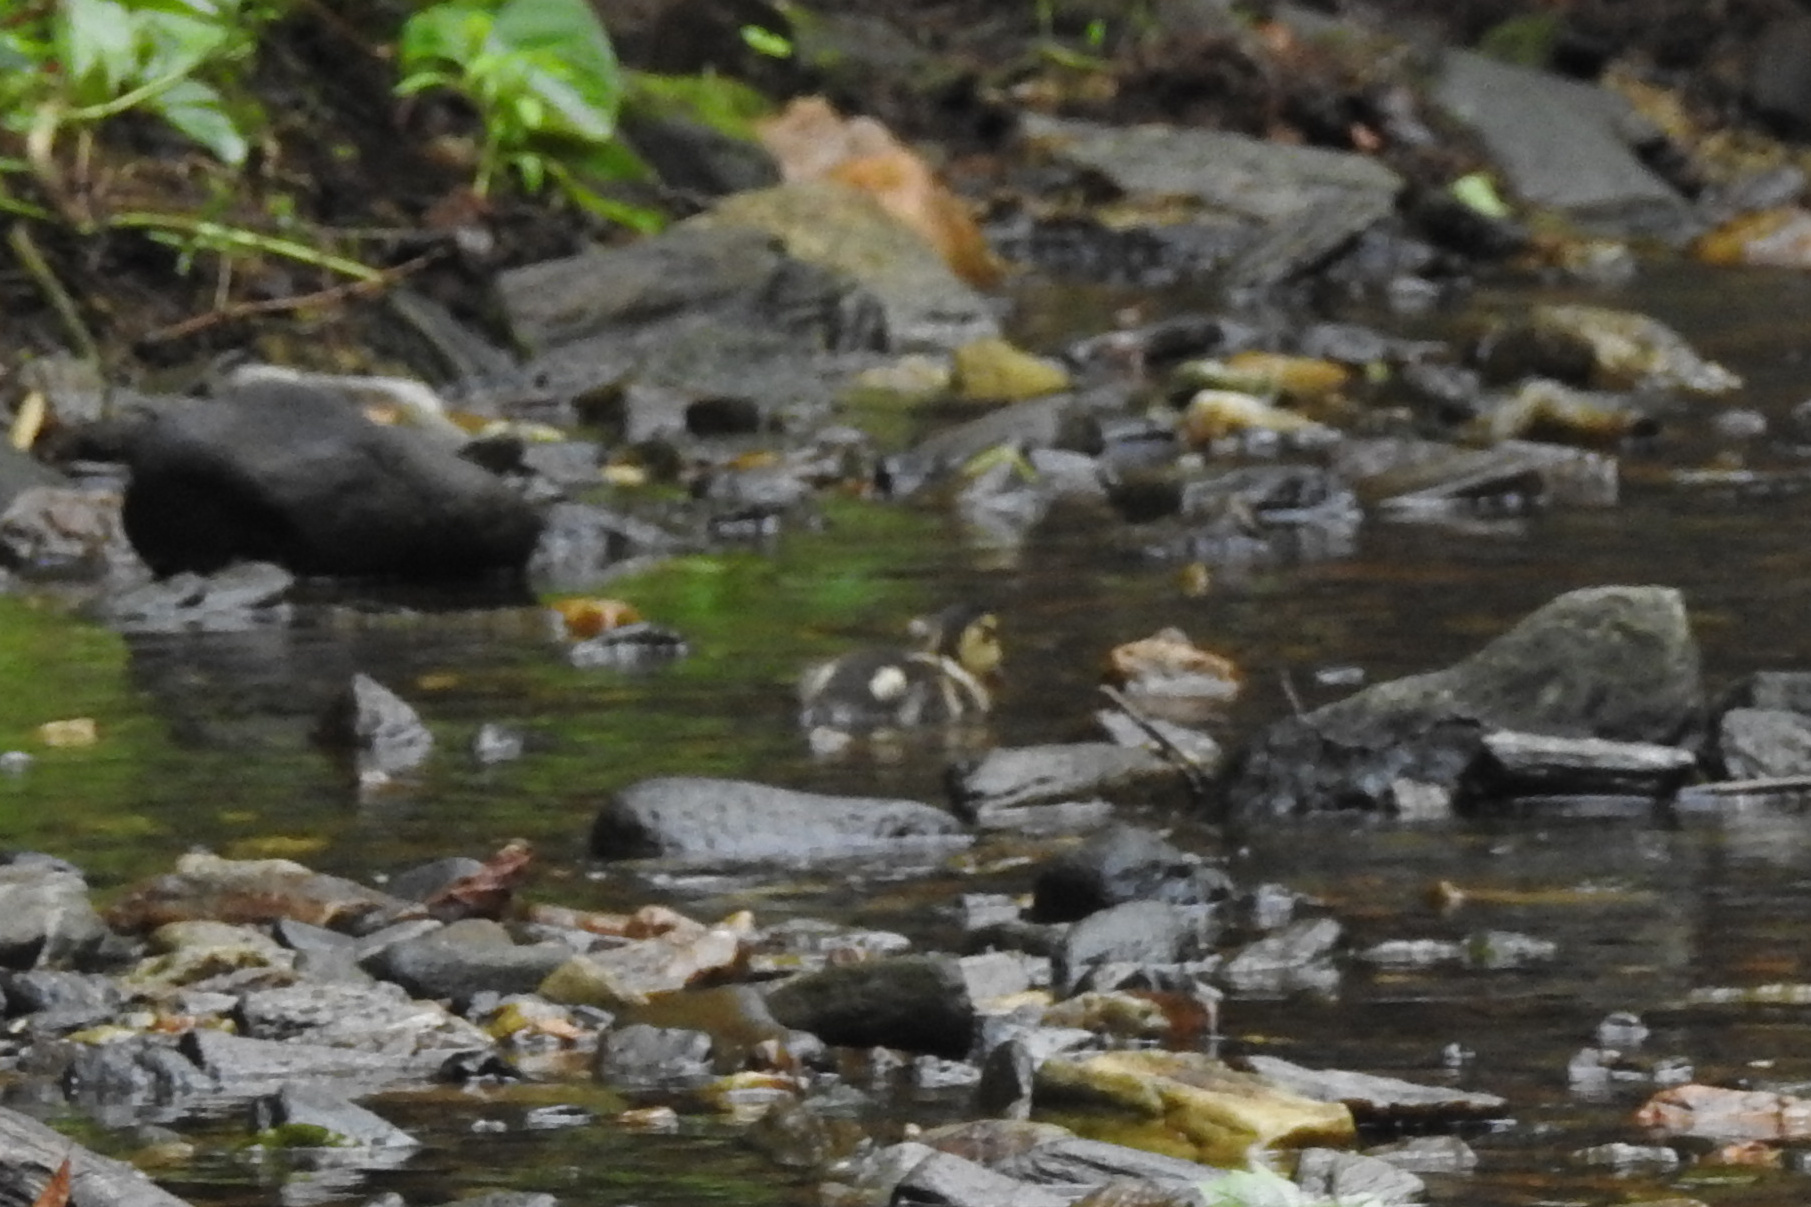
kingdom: Animalia
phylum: Chordata
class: Aves
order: Anseriformes
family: Anatidae
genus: Anas
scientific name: Anas platyrhynchos
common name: Mallard
